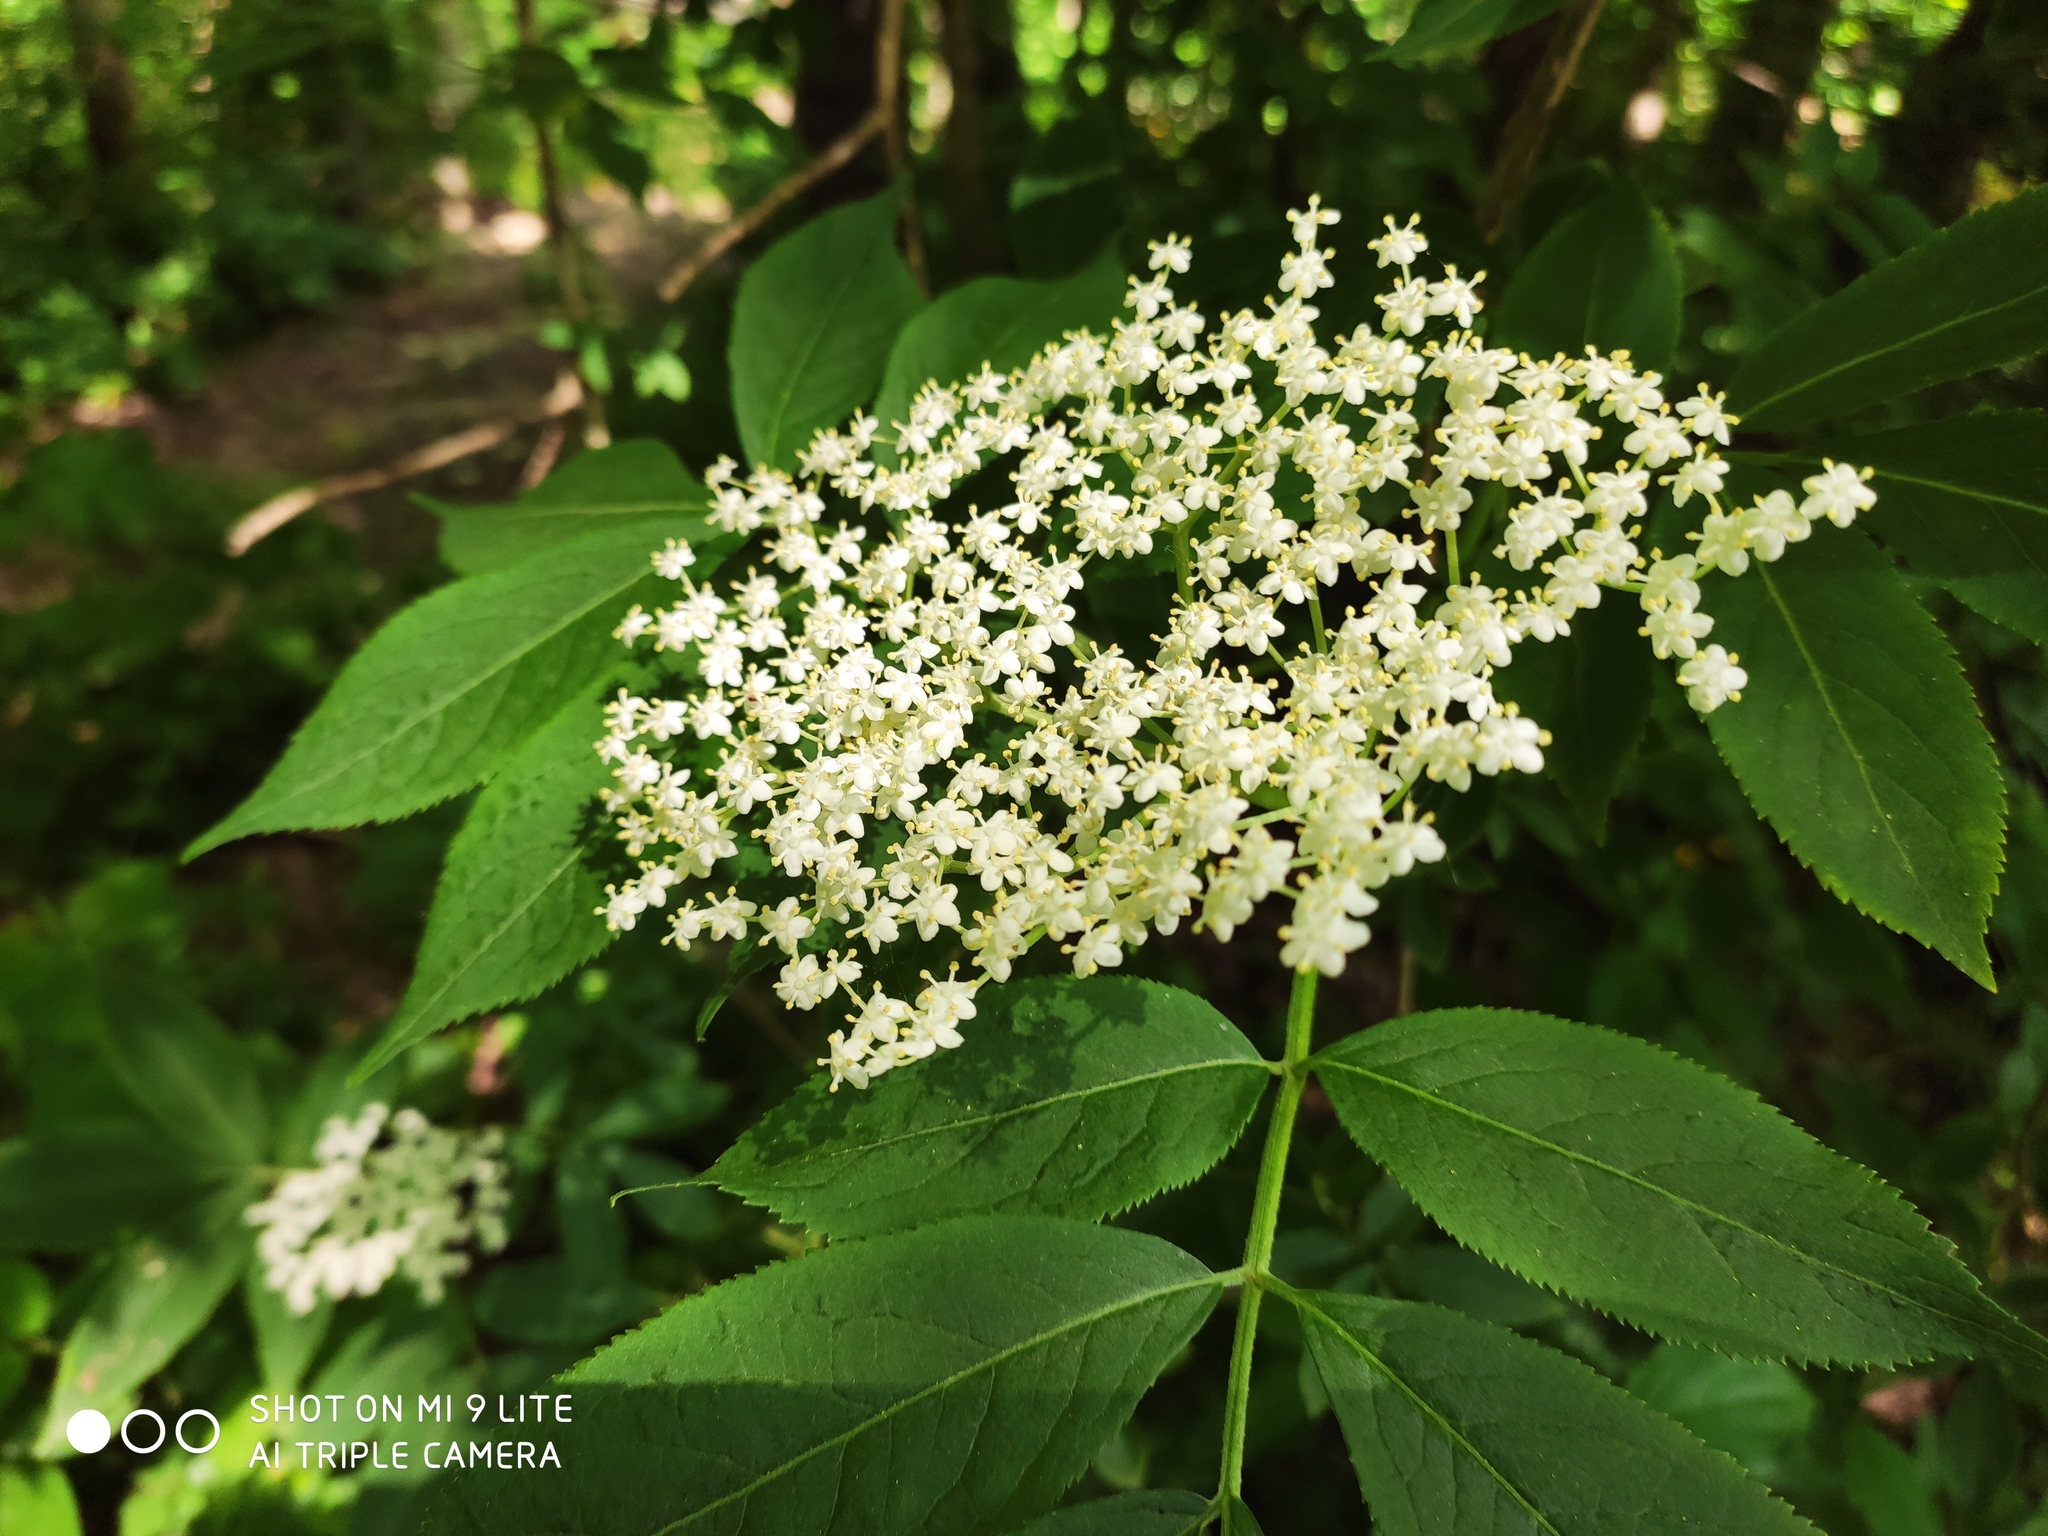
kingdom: Plantae
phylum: Tracheophyta
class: Magnoliopsida
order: Dipsacales
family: Viburnaceae
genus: Sambucus
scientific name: Sambucus nigra
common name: Elder
